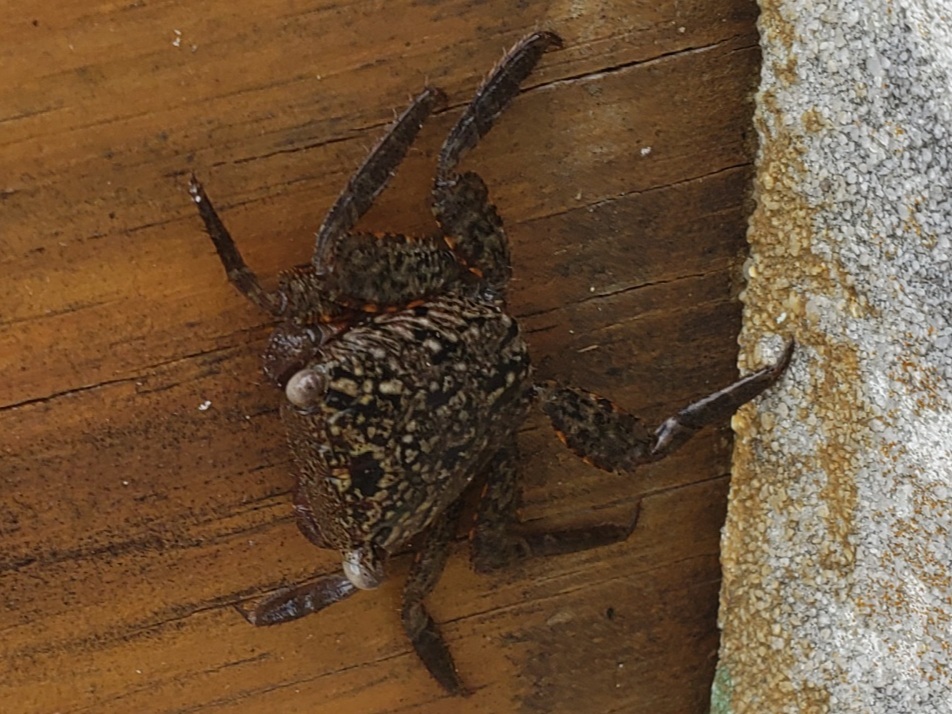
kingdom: Animalia
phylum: Arthropoda
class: Malacostraca
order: Decapoda
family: Sesarmidae
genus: Aratus
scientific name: Aratus pisonii
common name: Mangrove crab
